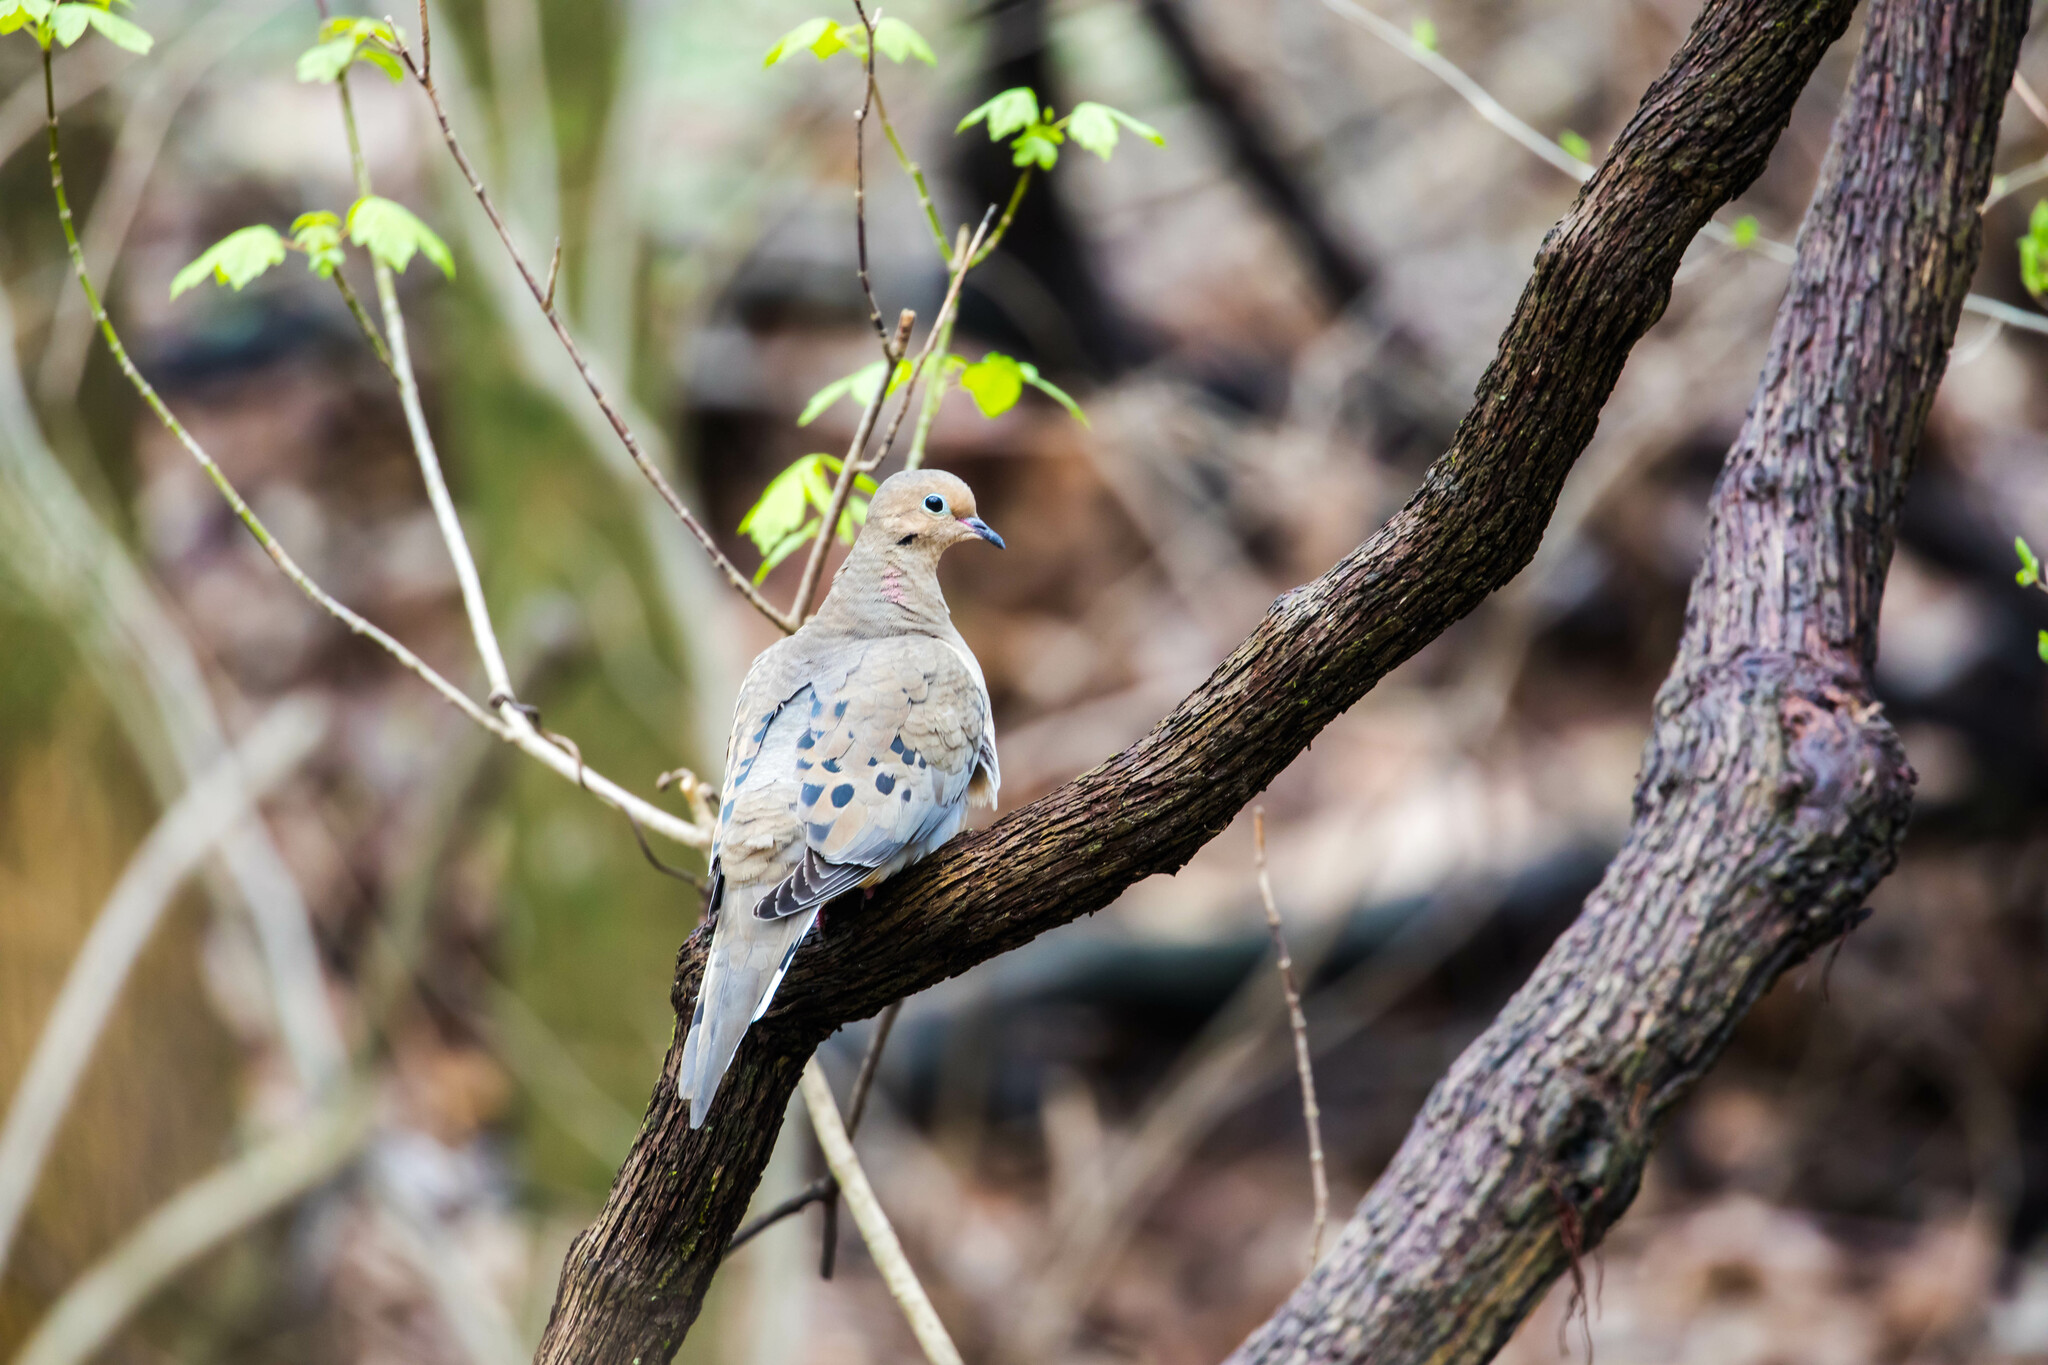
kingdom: Animalia
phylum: Chordata
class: Aves
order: Columbiformes
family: Columbidae
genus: Zenaida
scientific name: Zenaida macroura
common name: Mourning dove
